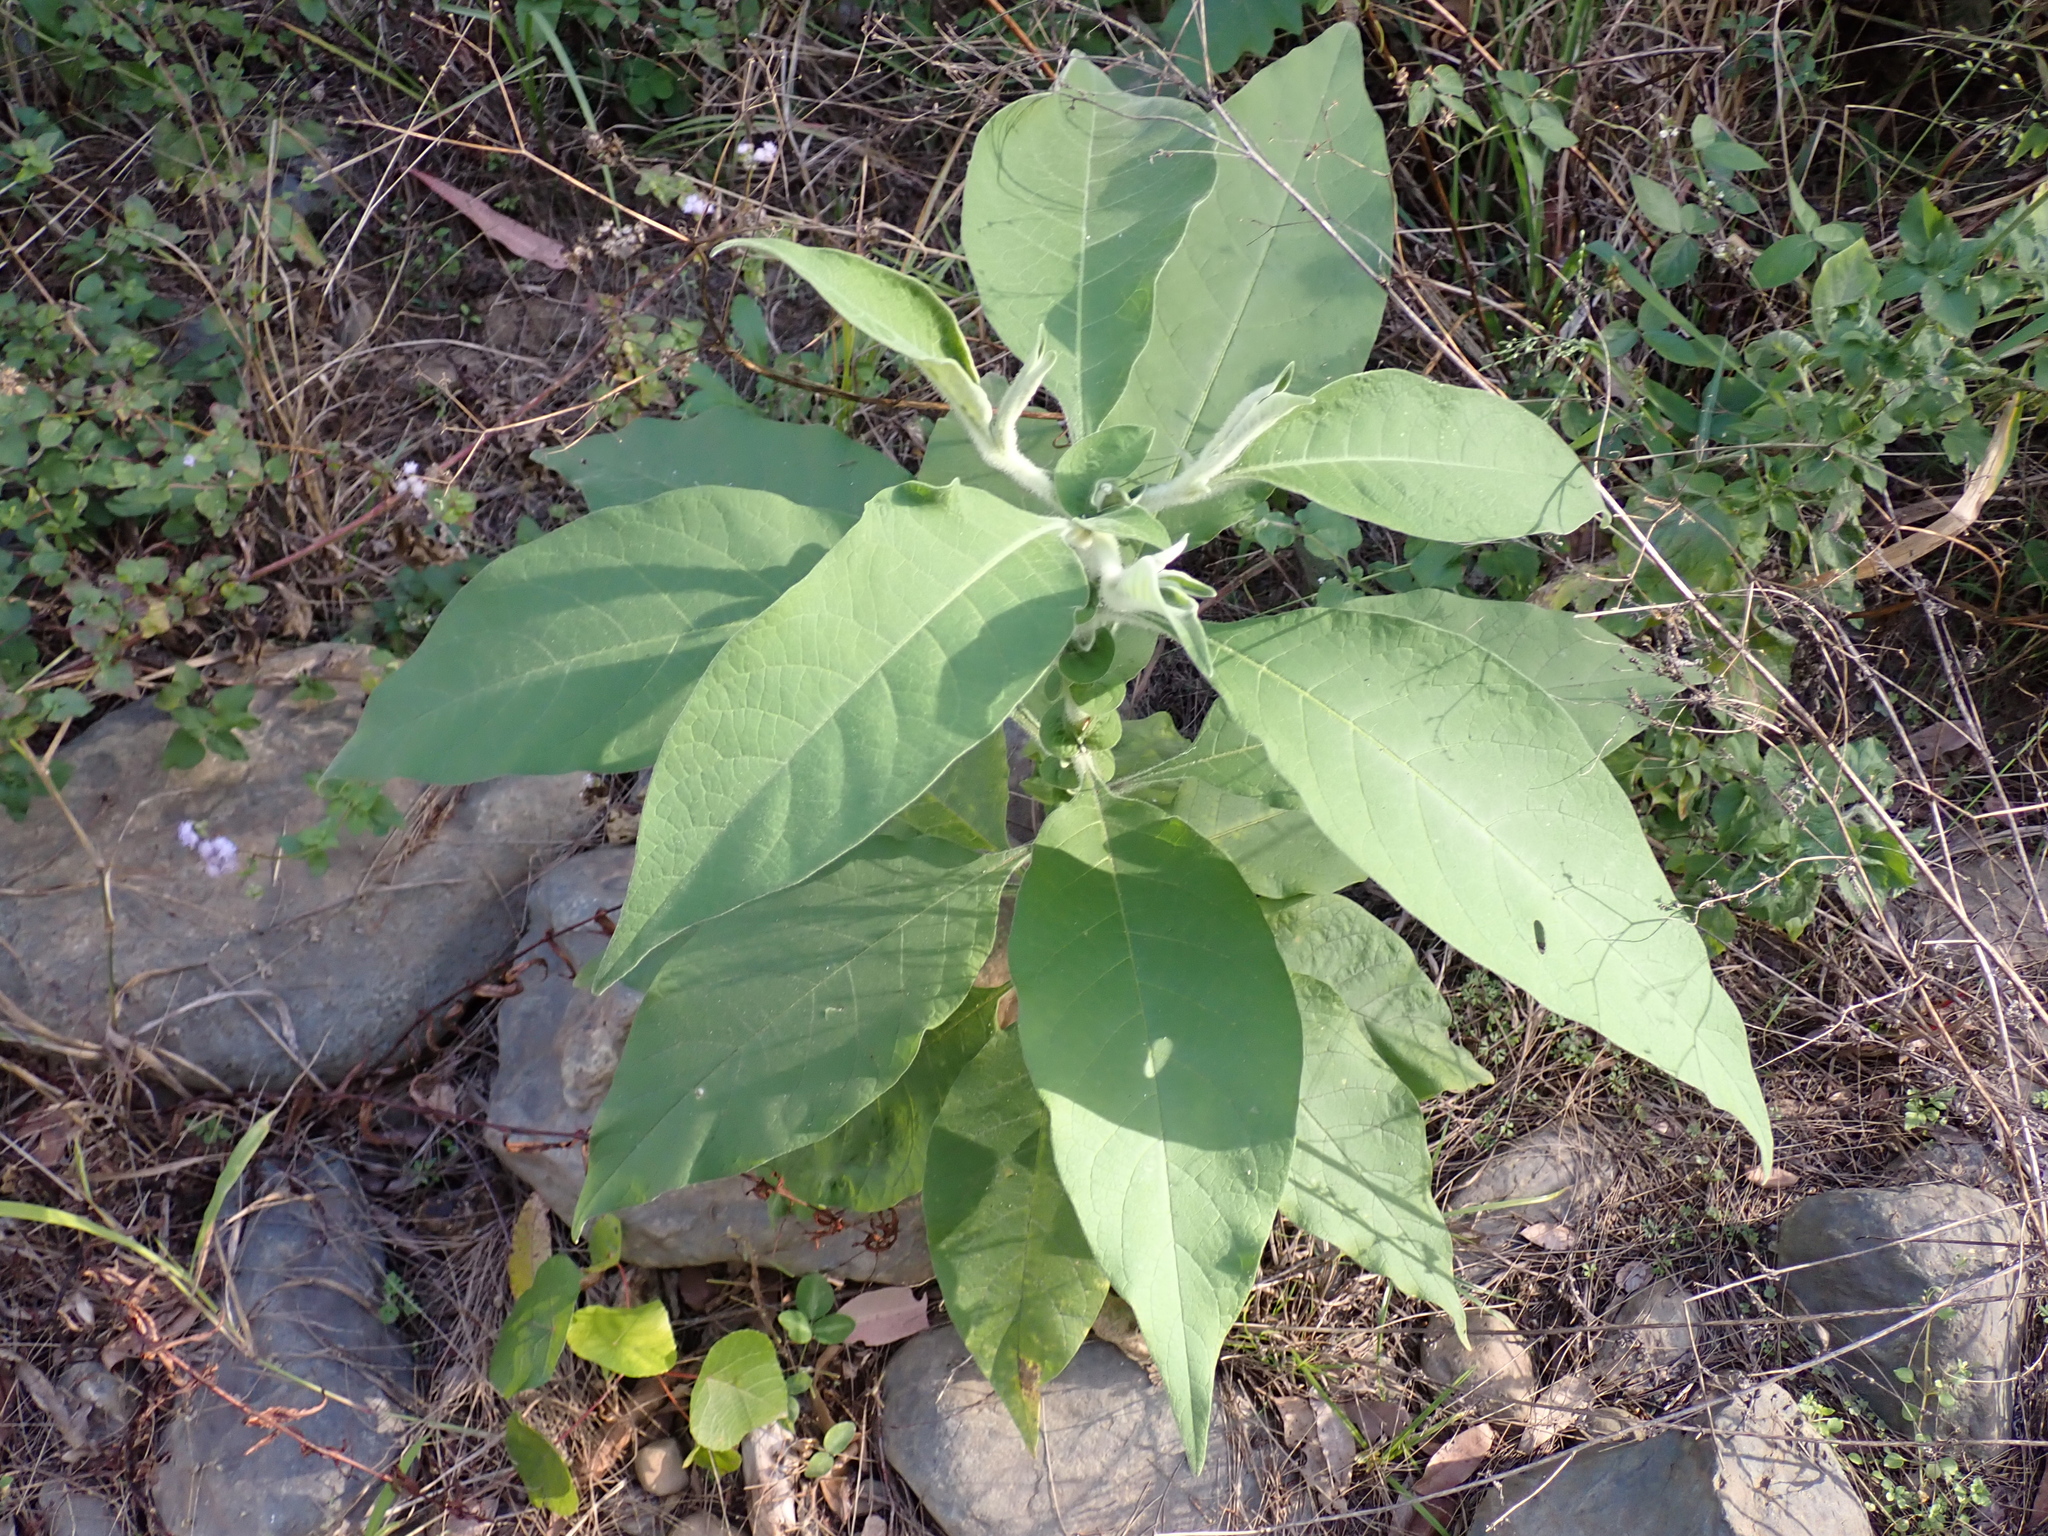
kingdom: Plantae
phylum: Tracheophyta
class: Magnoliopsida
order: Solanales
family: Solanaceae
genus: Solanum
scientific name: Solanum mauritianum
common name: Earleaf nightshade
